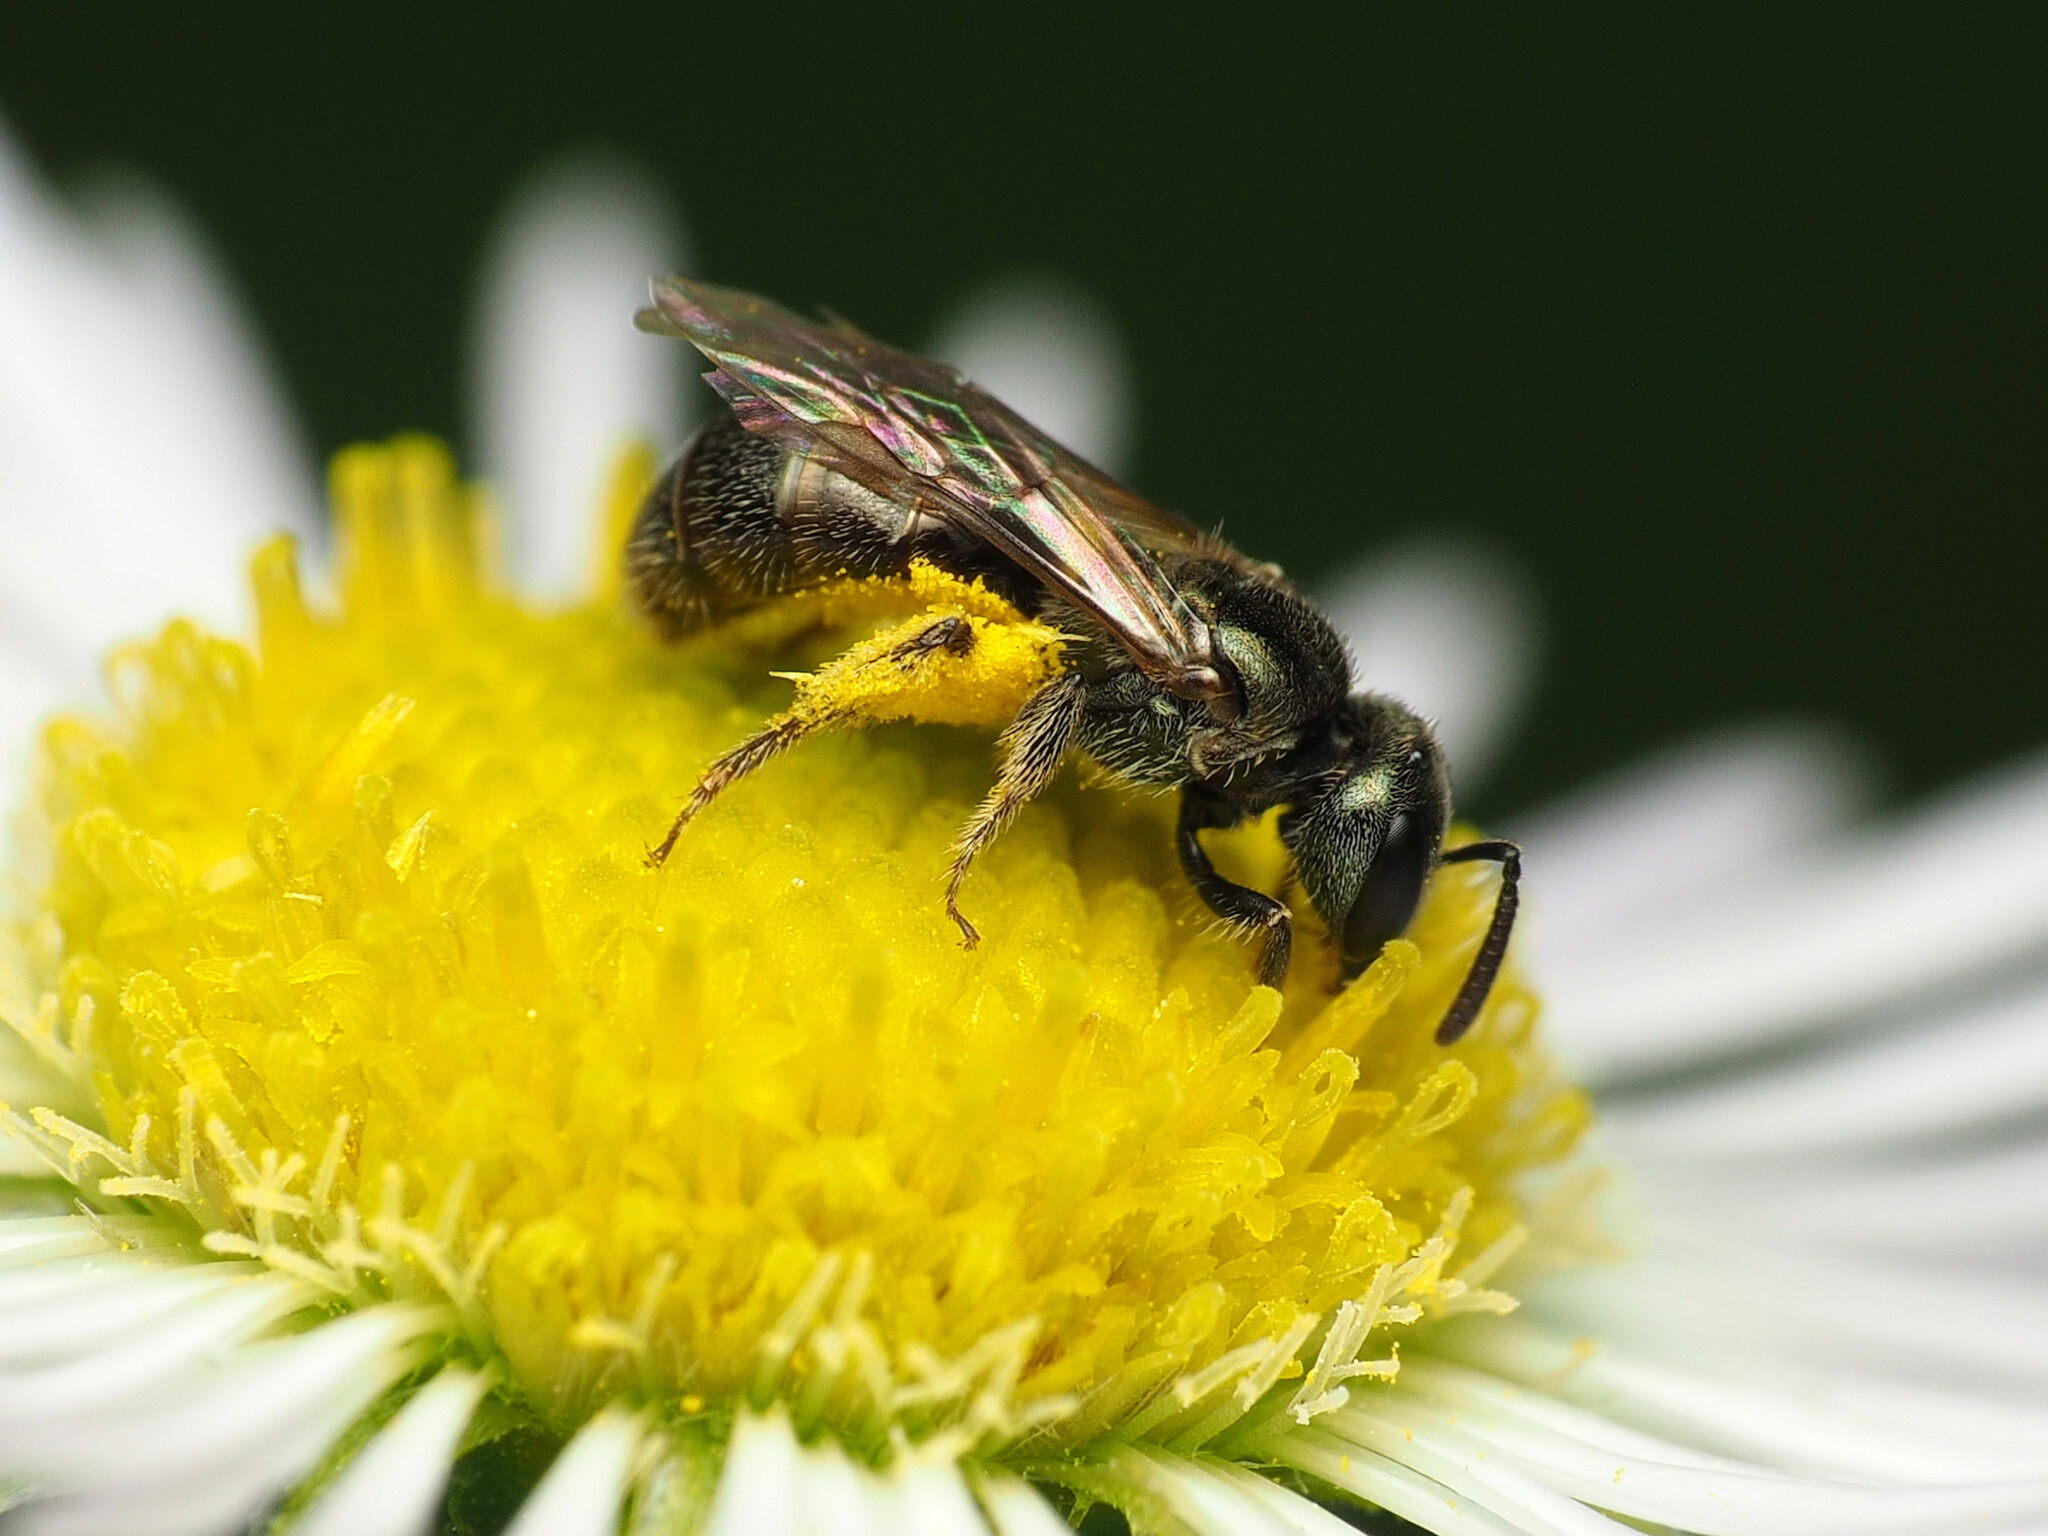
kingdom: Animalia
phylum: Arthropoda
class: Insecta
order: Hymenoptera
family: Halictidae
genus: Lasioglossum
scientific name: Lasioglossum imitatum
